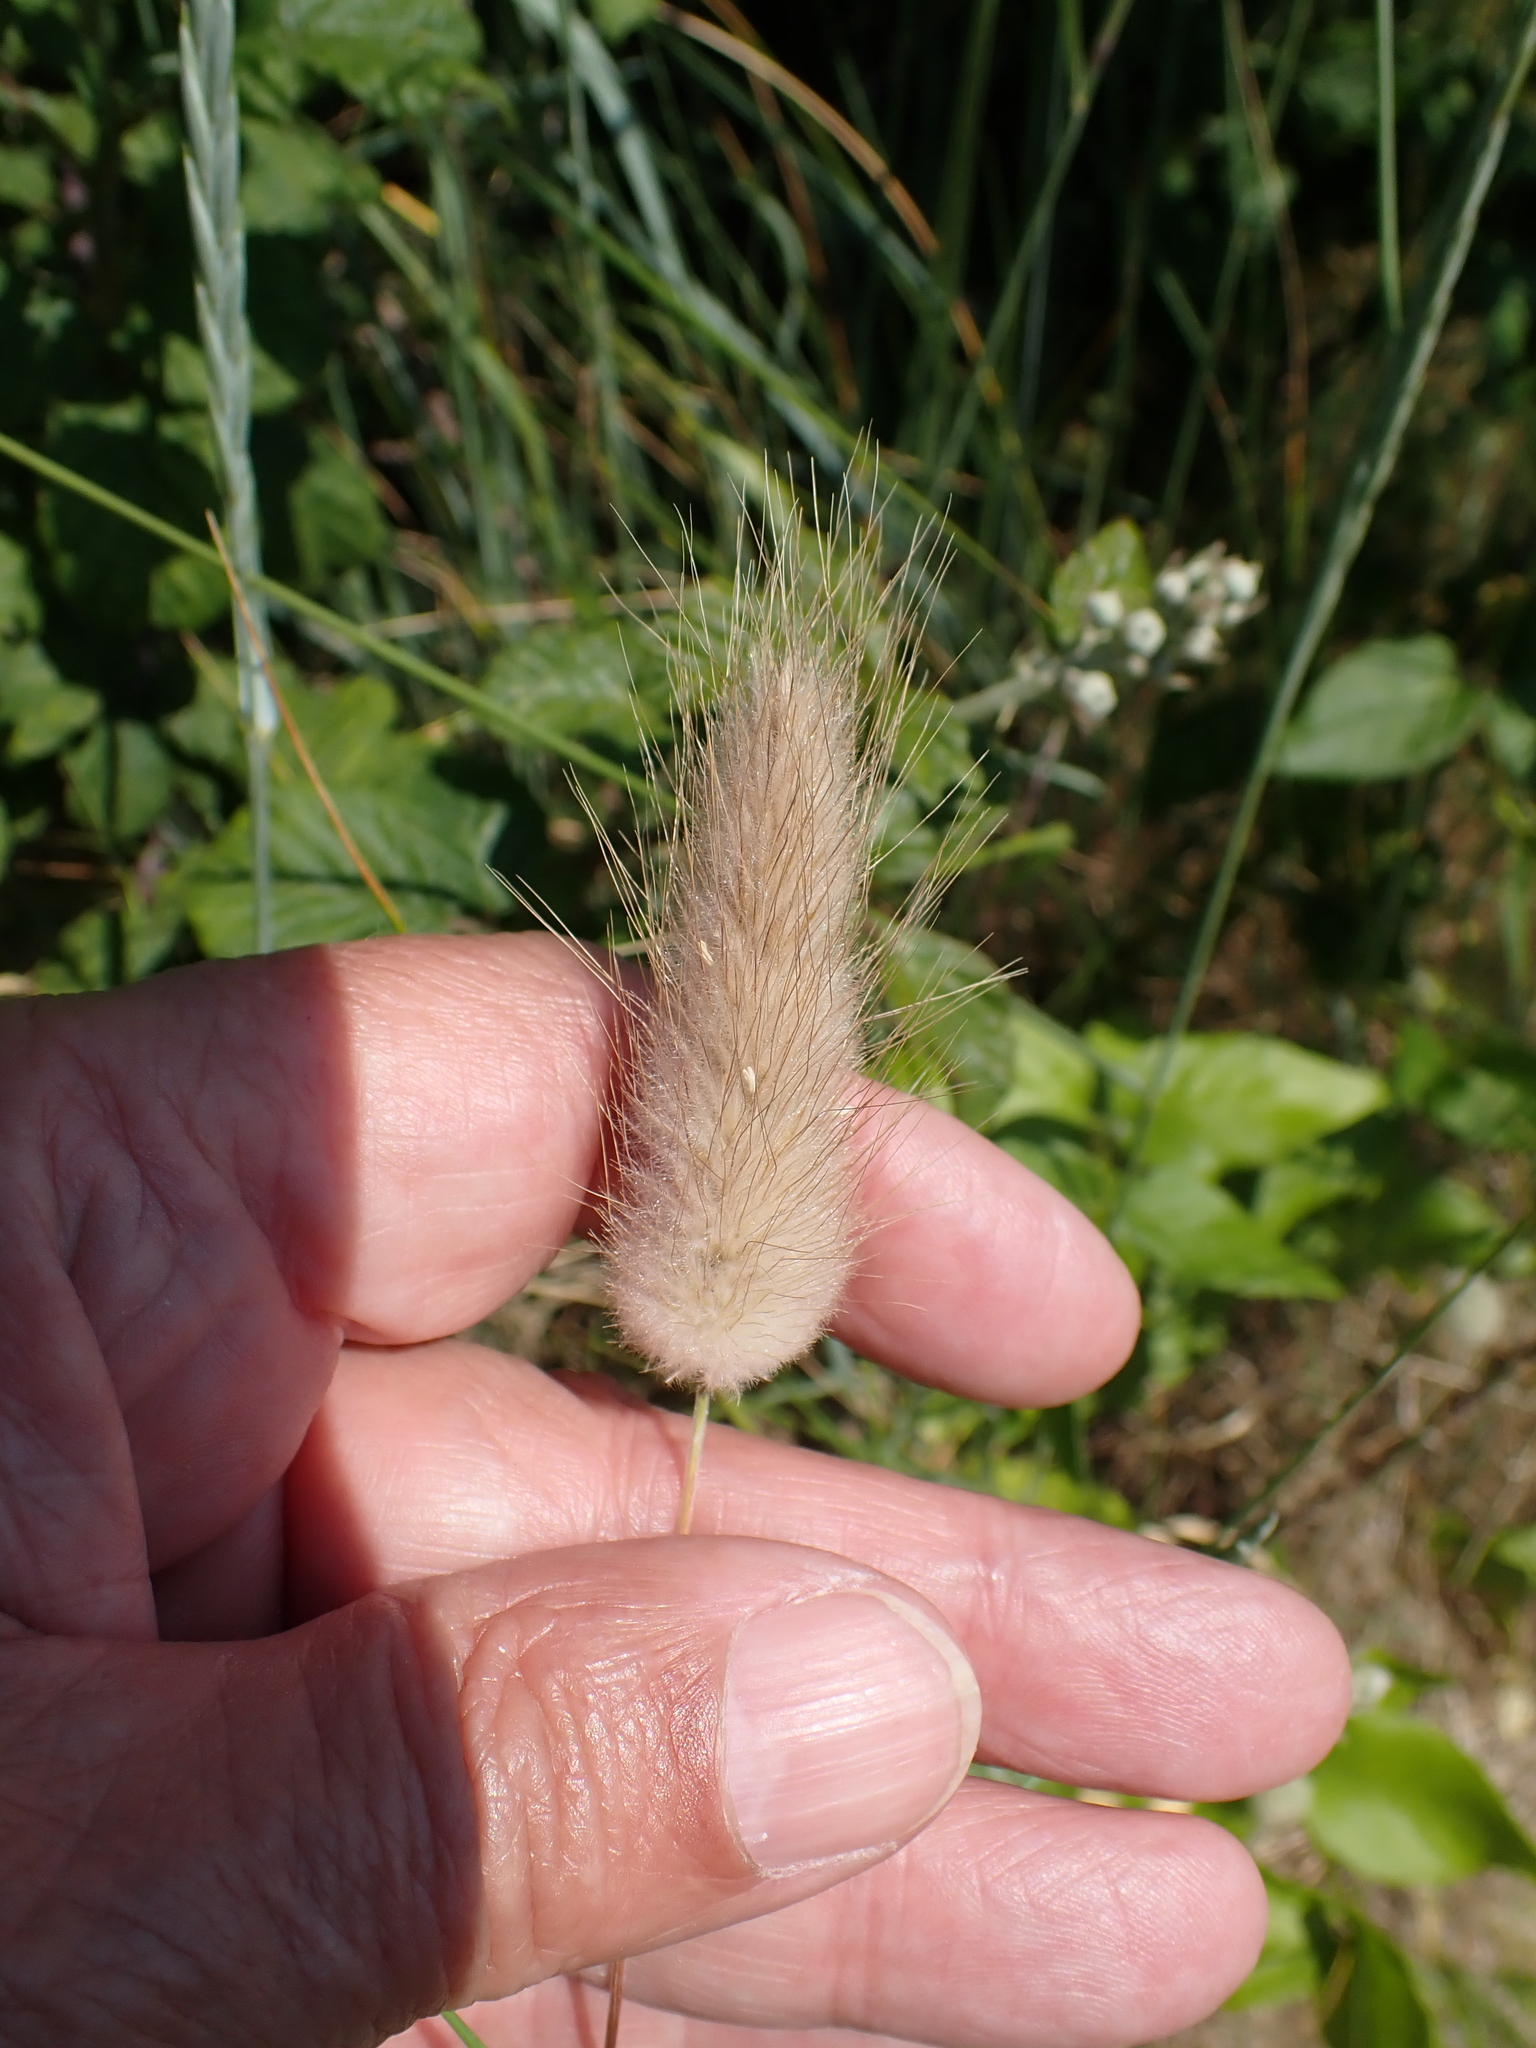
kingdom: Plantae
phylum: Tracheophyta
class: Liliopsida
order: Poales
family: Poaceae
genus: Lagurus
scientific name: Lagurus ovatus
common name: Hare's-tail
